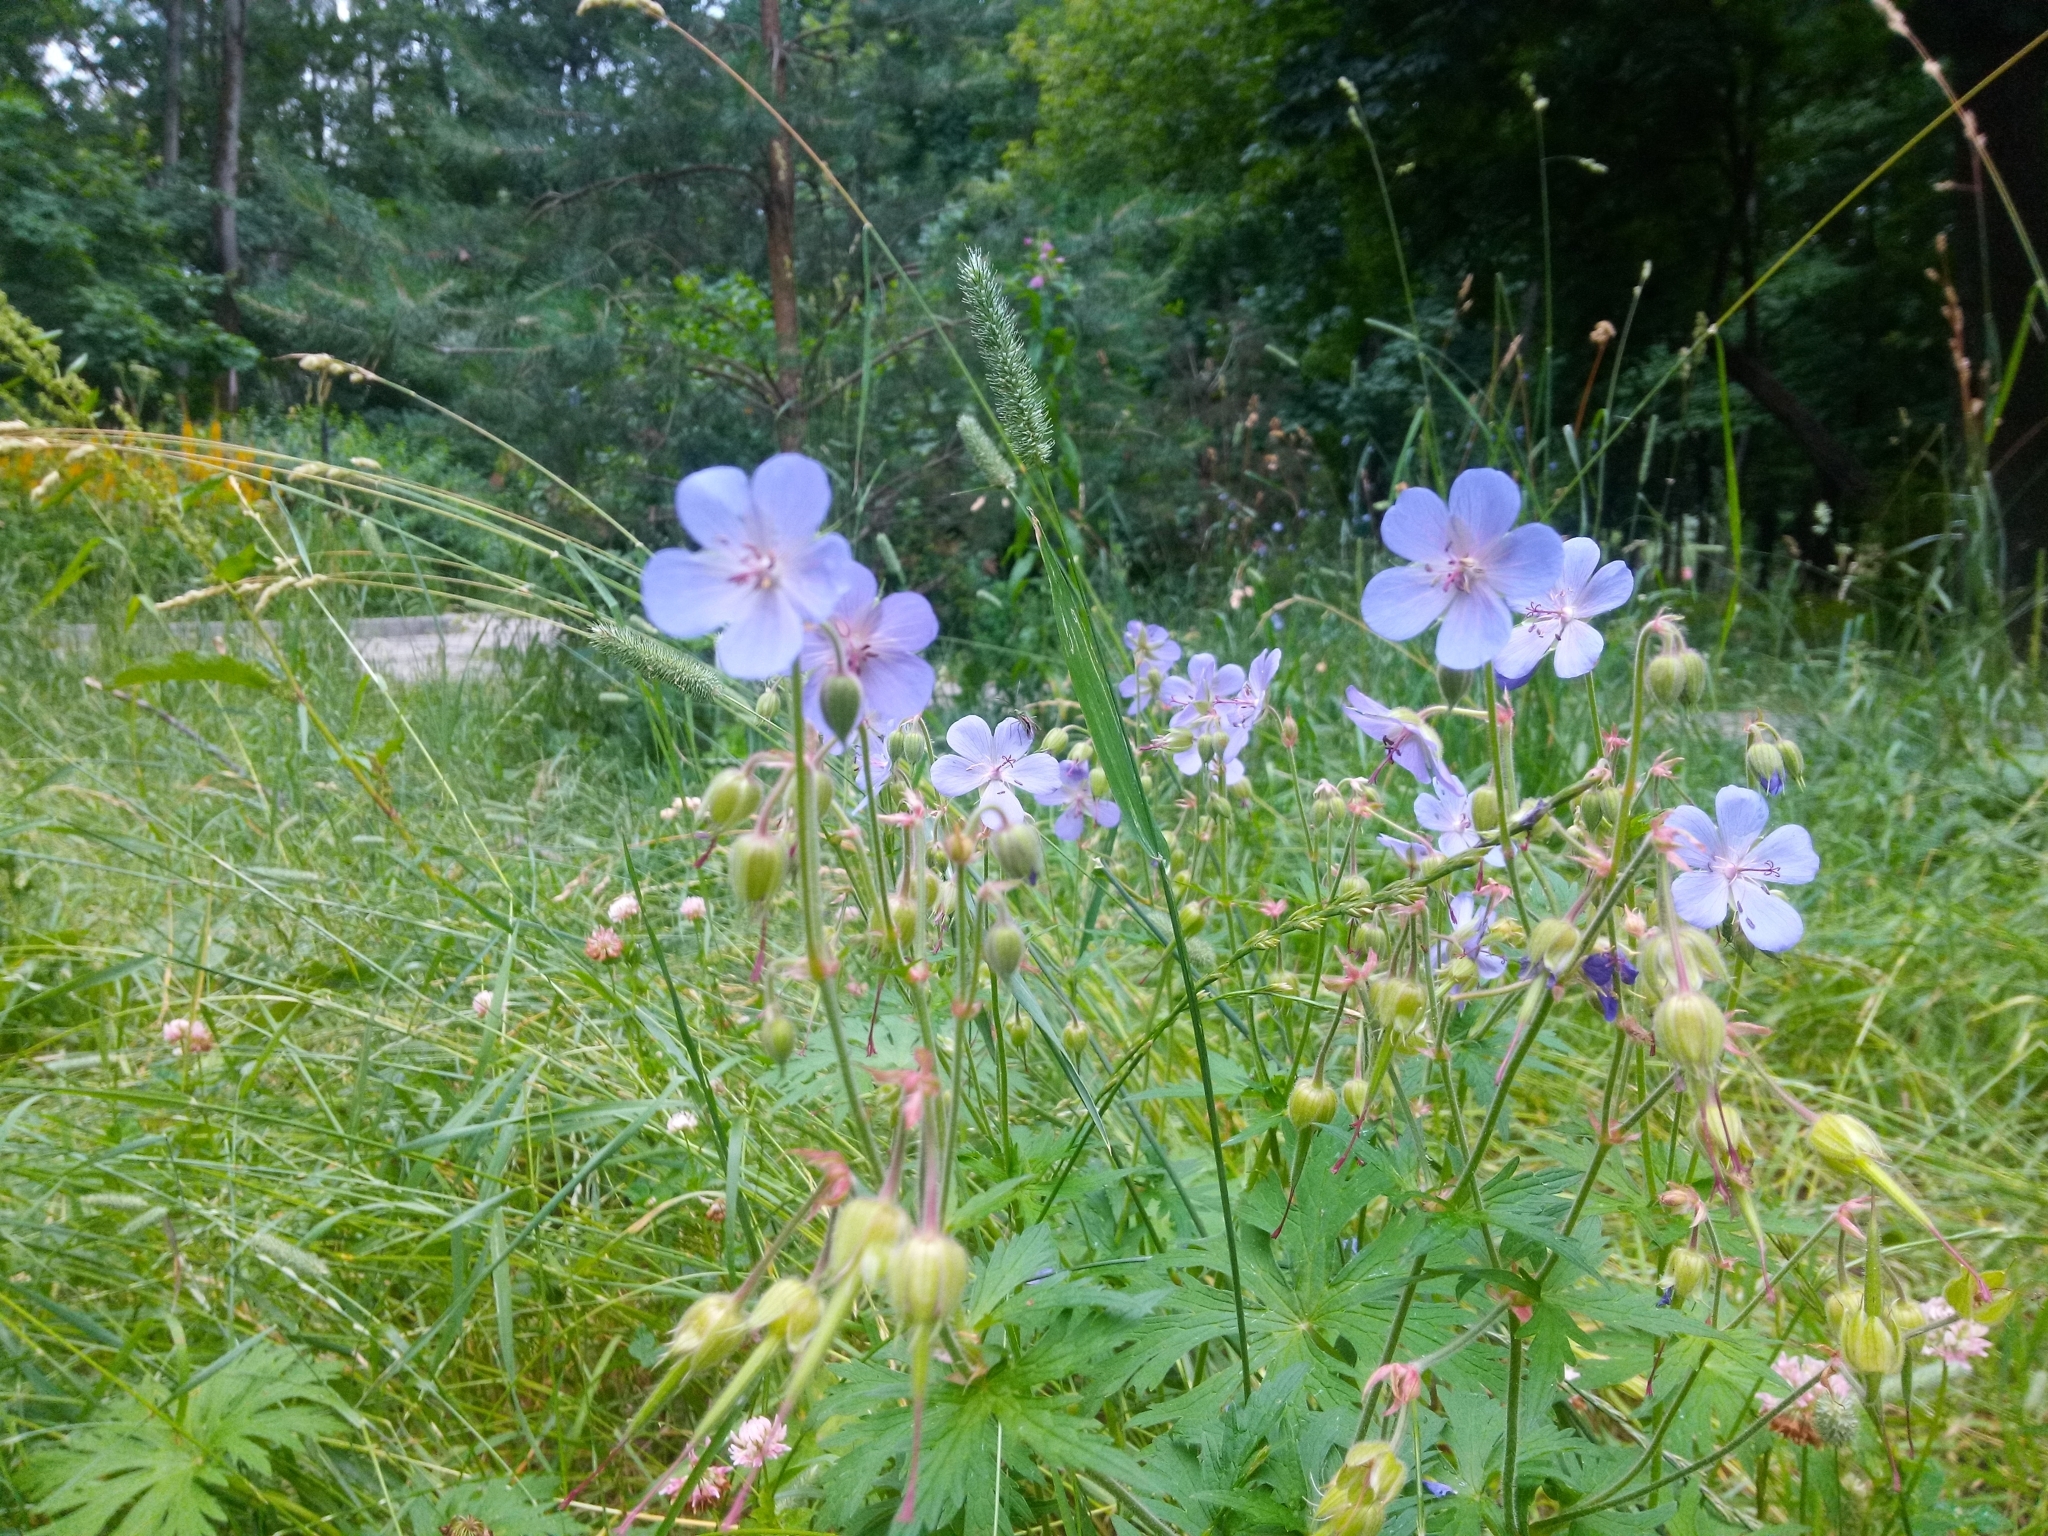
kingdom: Plantae
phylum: Tracheophyta
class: Magnoliopsida
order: Geraniales
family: Geraniaceae
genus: Geranium
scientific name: Geranium pratense
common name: Meadow crane's-bill
